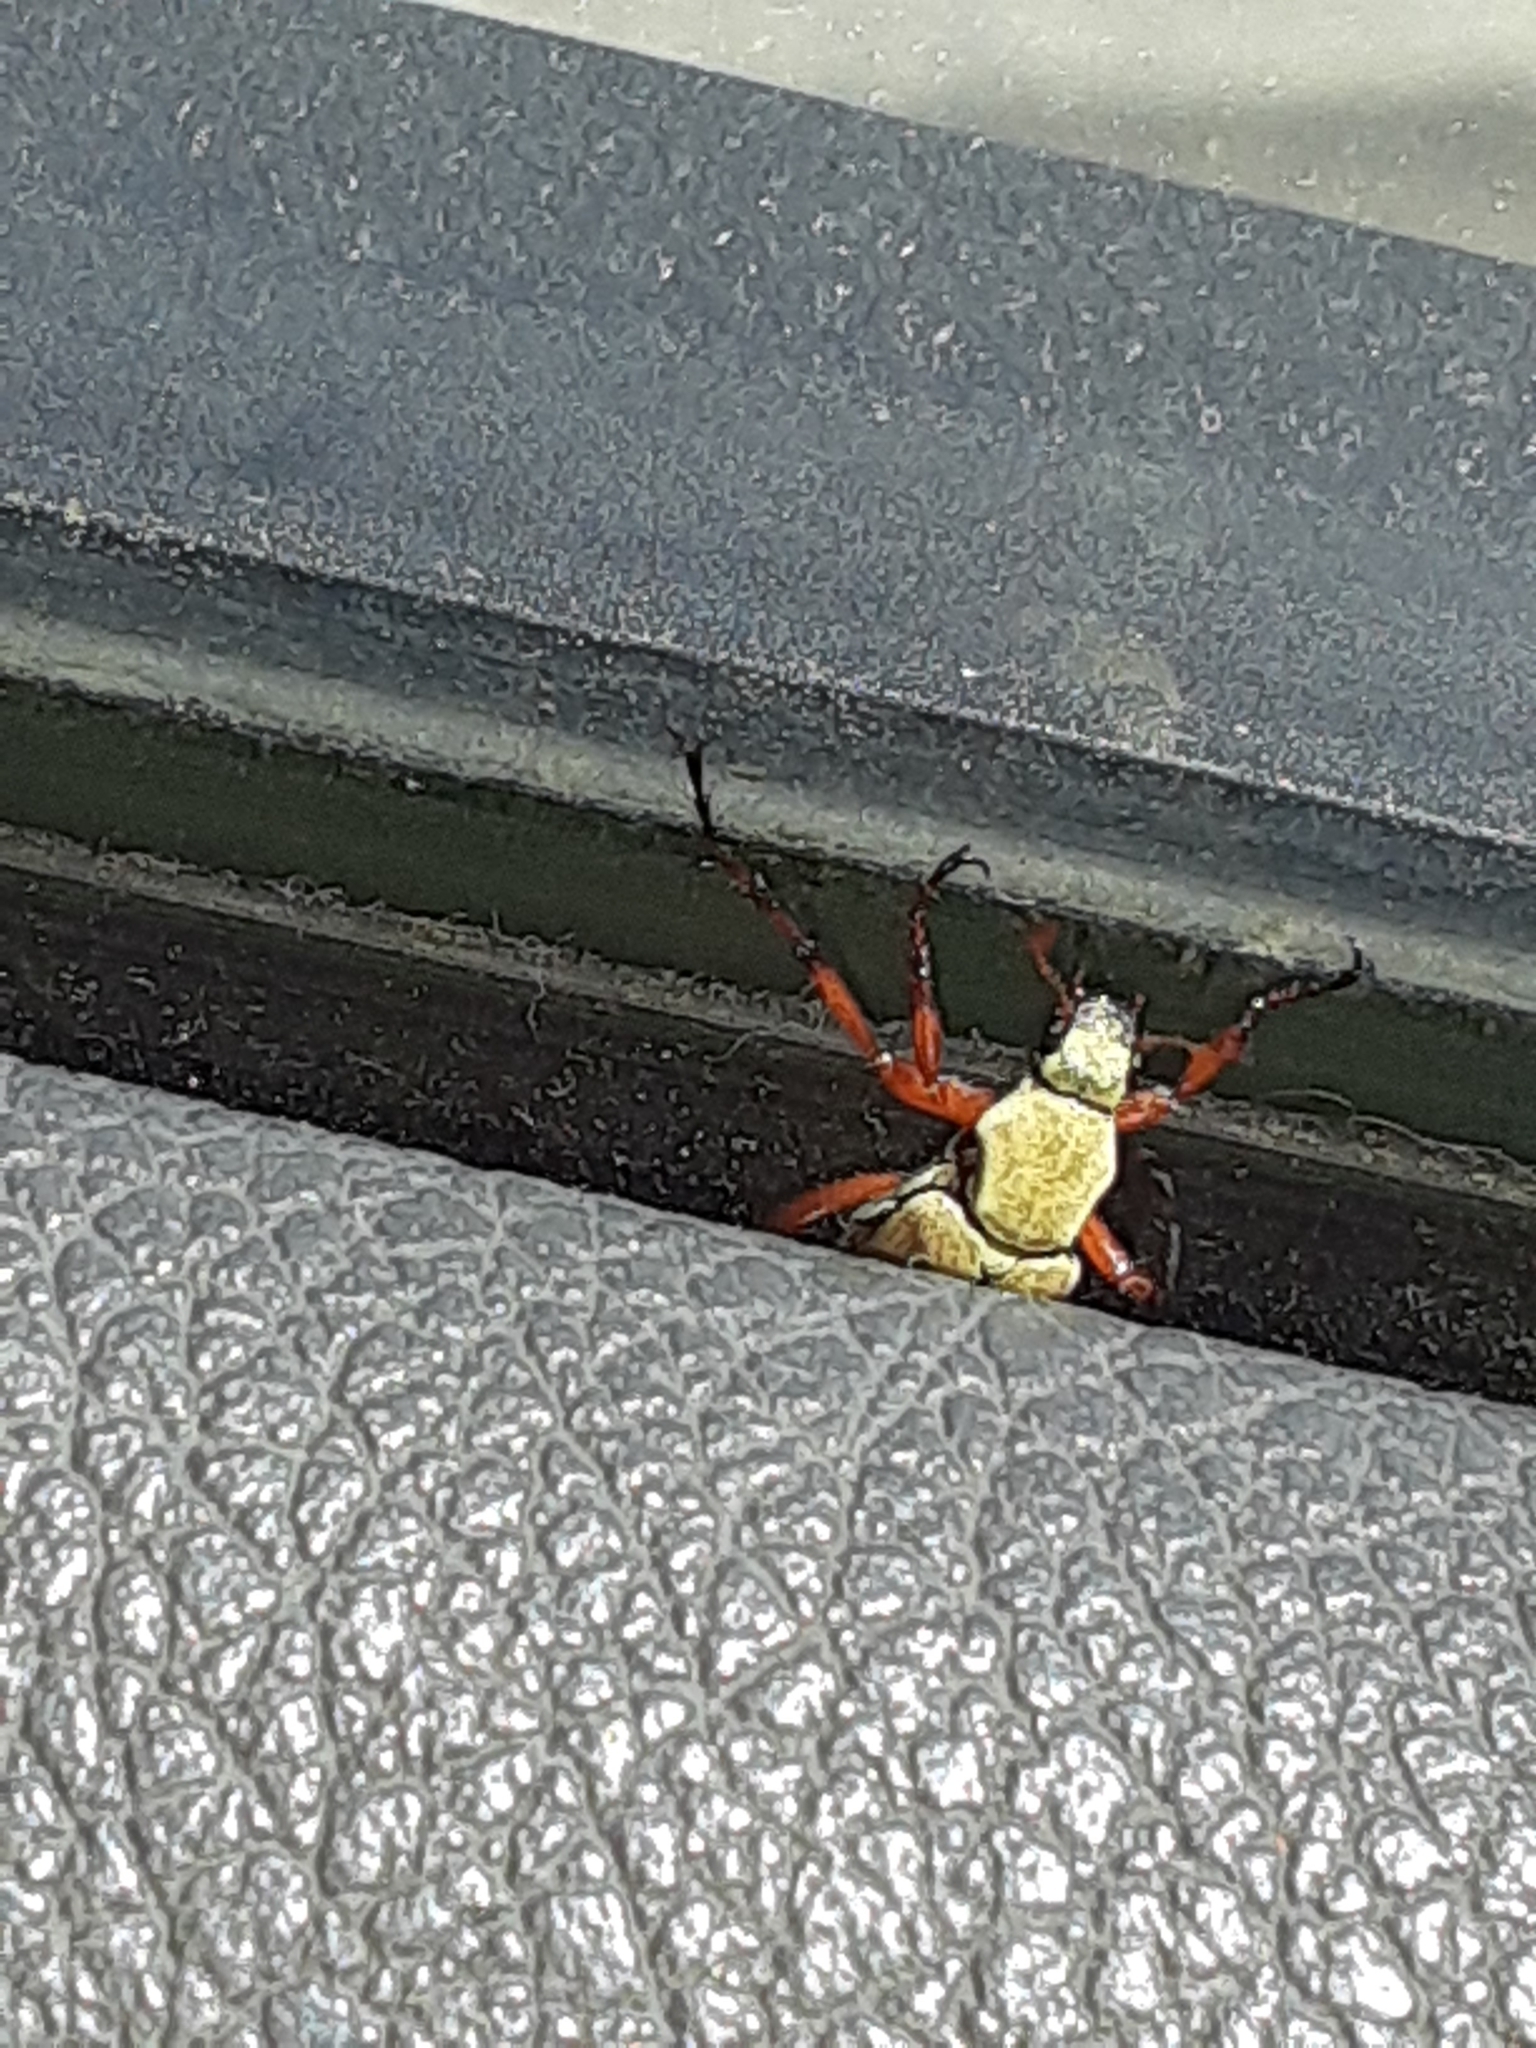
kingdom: Animalia
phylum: Arthropoda
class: Insecta
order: Coleoptera
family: Scarabaeidae
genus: Macrodactylus
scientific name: Macrodactylus subspinosus
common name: American rose chafer
